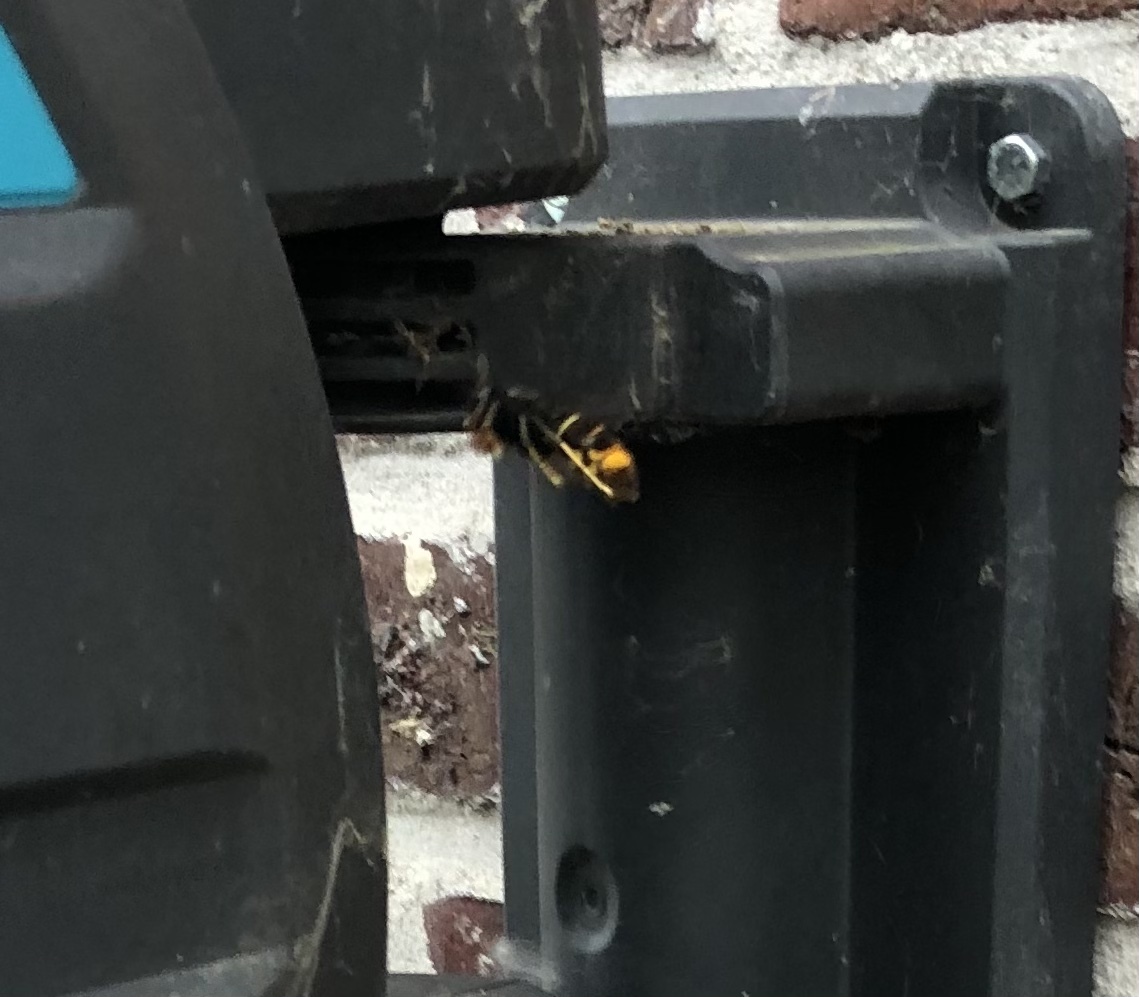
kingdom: Animalia
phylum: Arthropoda
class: Insecta
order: Hymenoptera
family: Vespidae
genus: Vespa
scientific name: Vespa velutina
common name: Asian hornet
